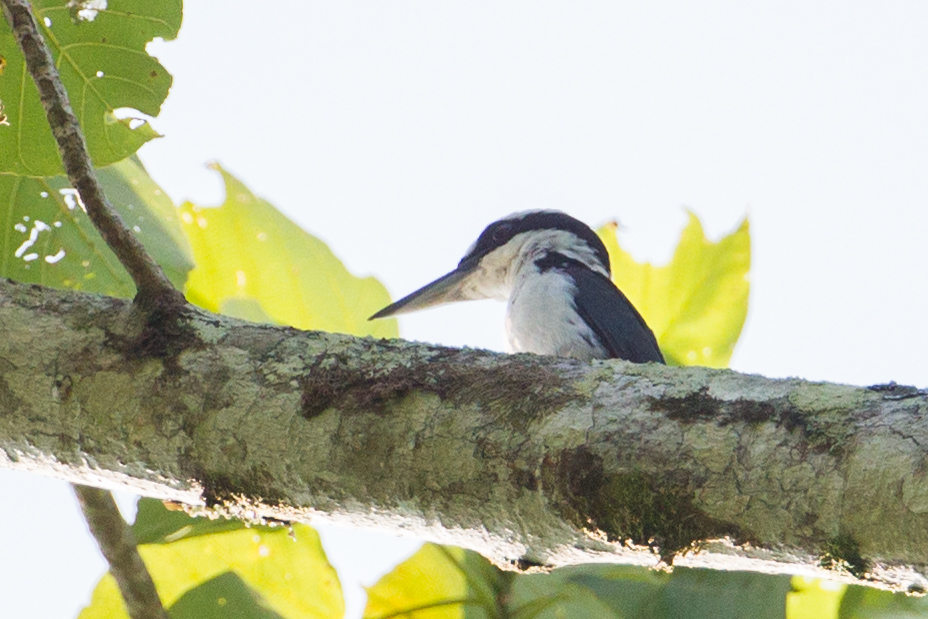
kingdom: Animalia
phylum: Chordata
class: Aves
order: Coraciiformes
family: Alcedinidae
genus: Todiramphus
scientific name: Todiramphus funebris
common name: Sombre kingfisher
